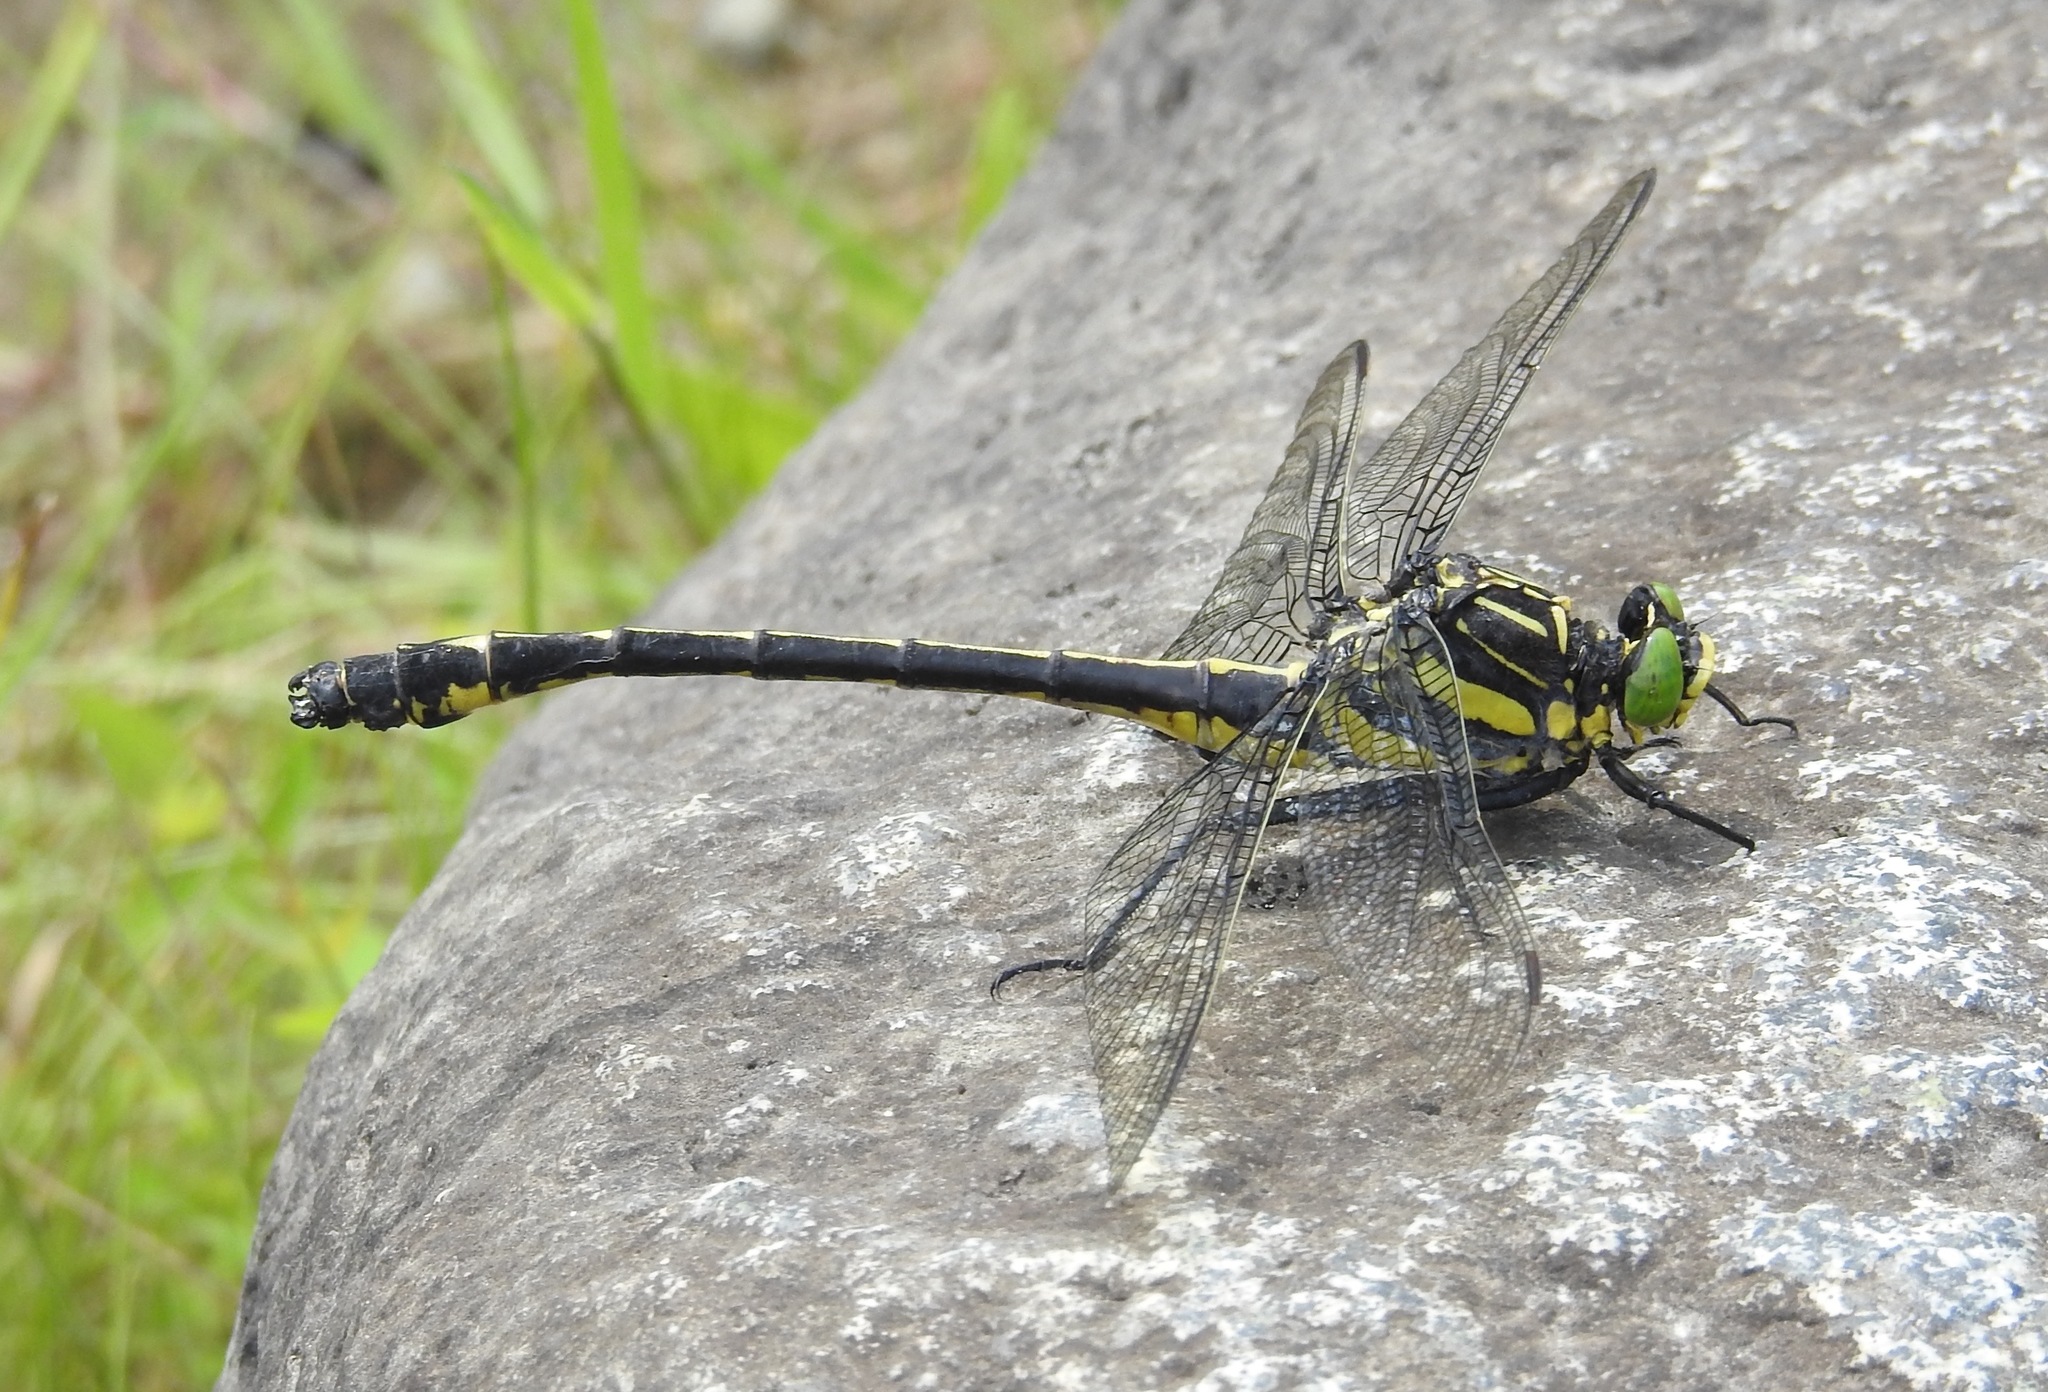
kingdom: Animalia
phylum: Arthropoda
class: Insecta
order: Odonata
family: Gomphidae
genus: Hagenius
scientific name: Hagenius brevistylus
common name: Dragonhunter
